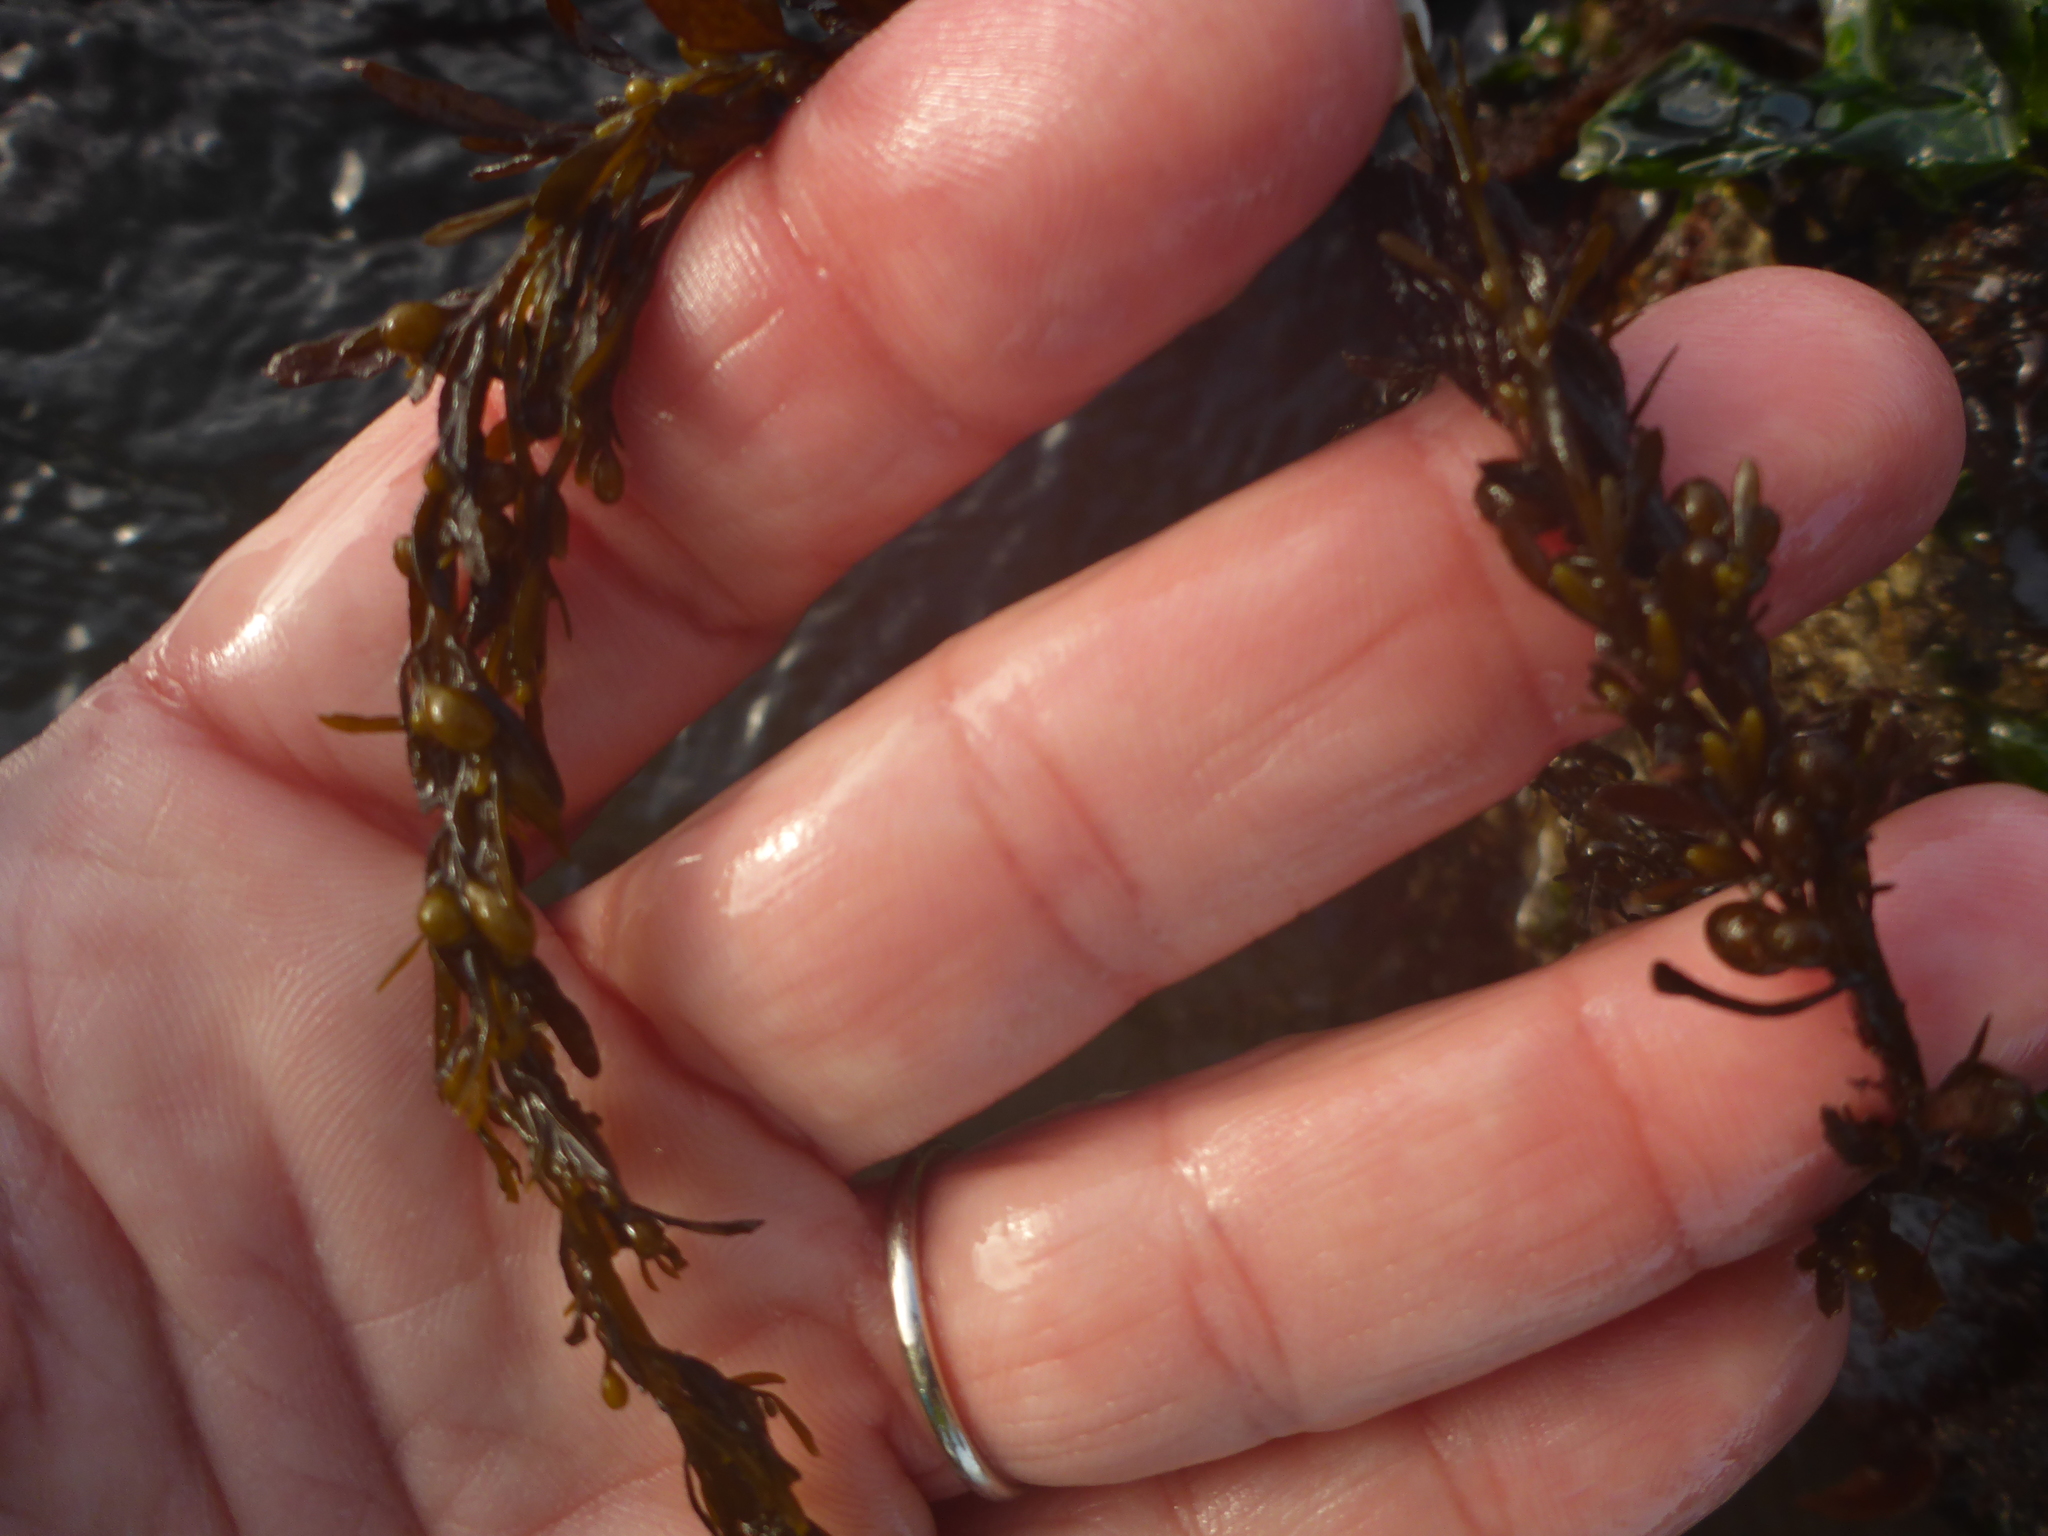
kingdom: Chromista
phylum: Ochrophyta
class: Phaeophyceae
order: Fucales
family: Sargassaceae
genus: Sargassum
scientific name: Sargassum muticum
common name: Japweed
